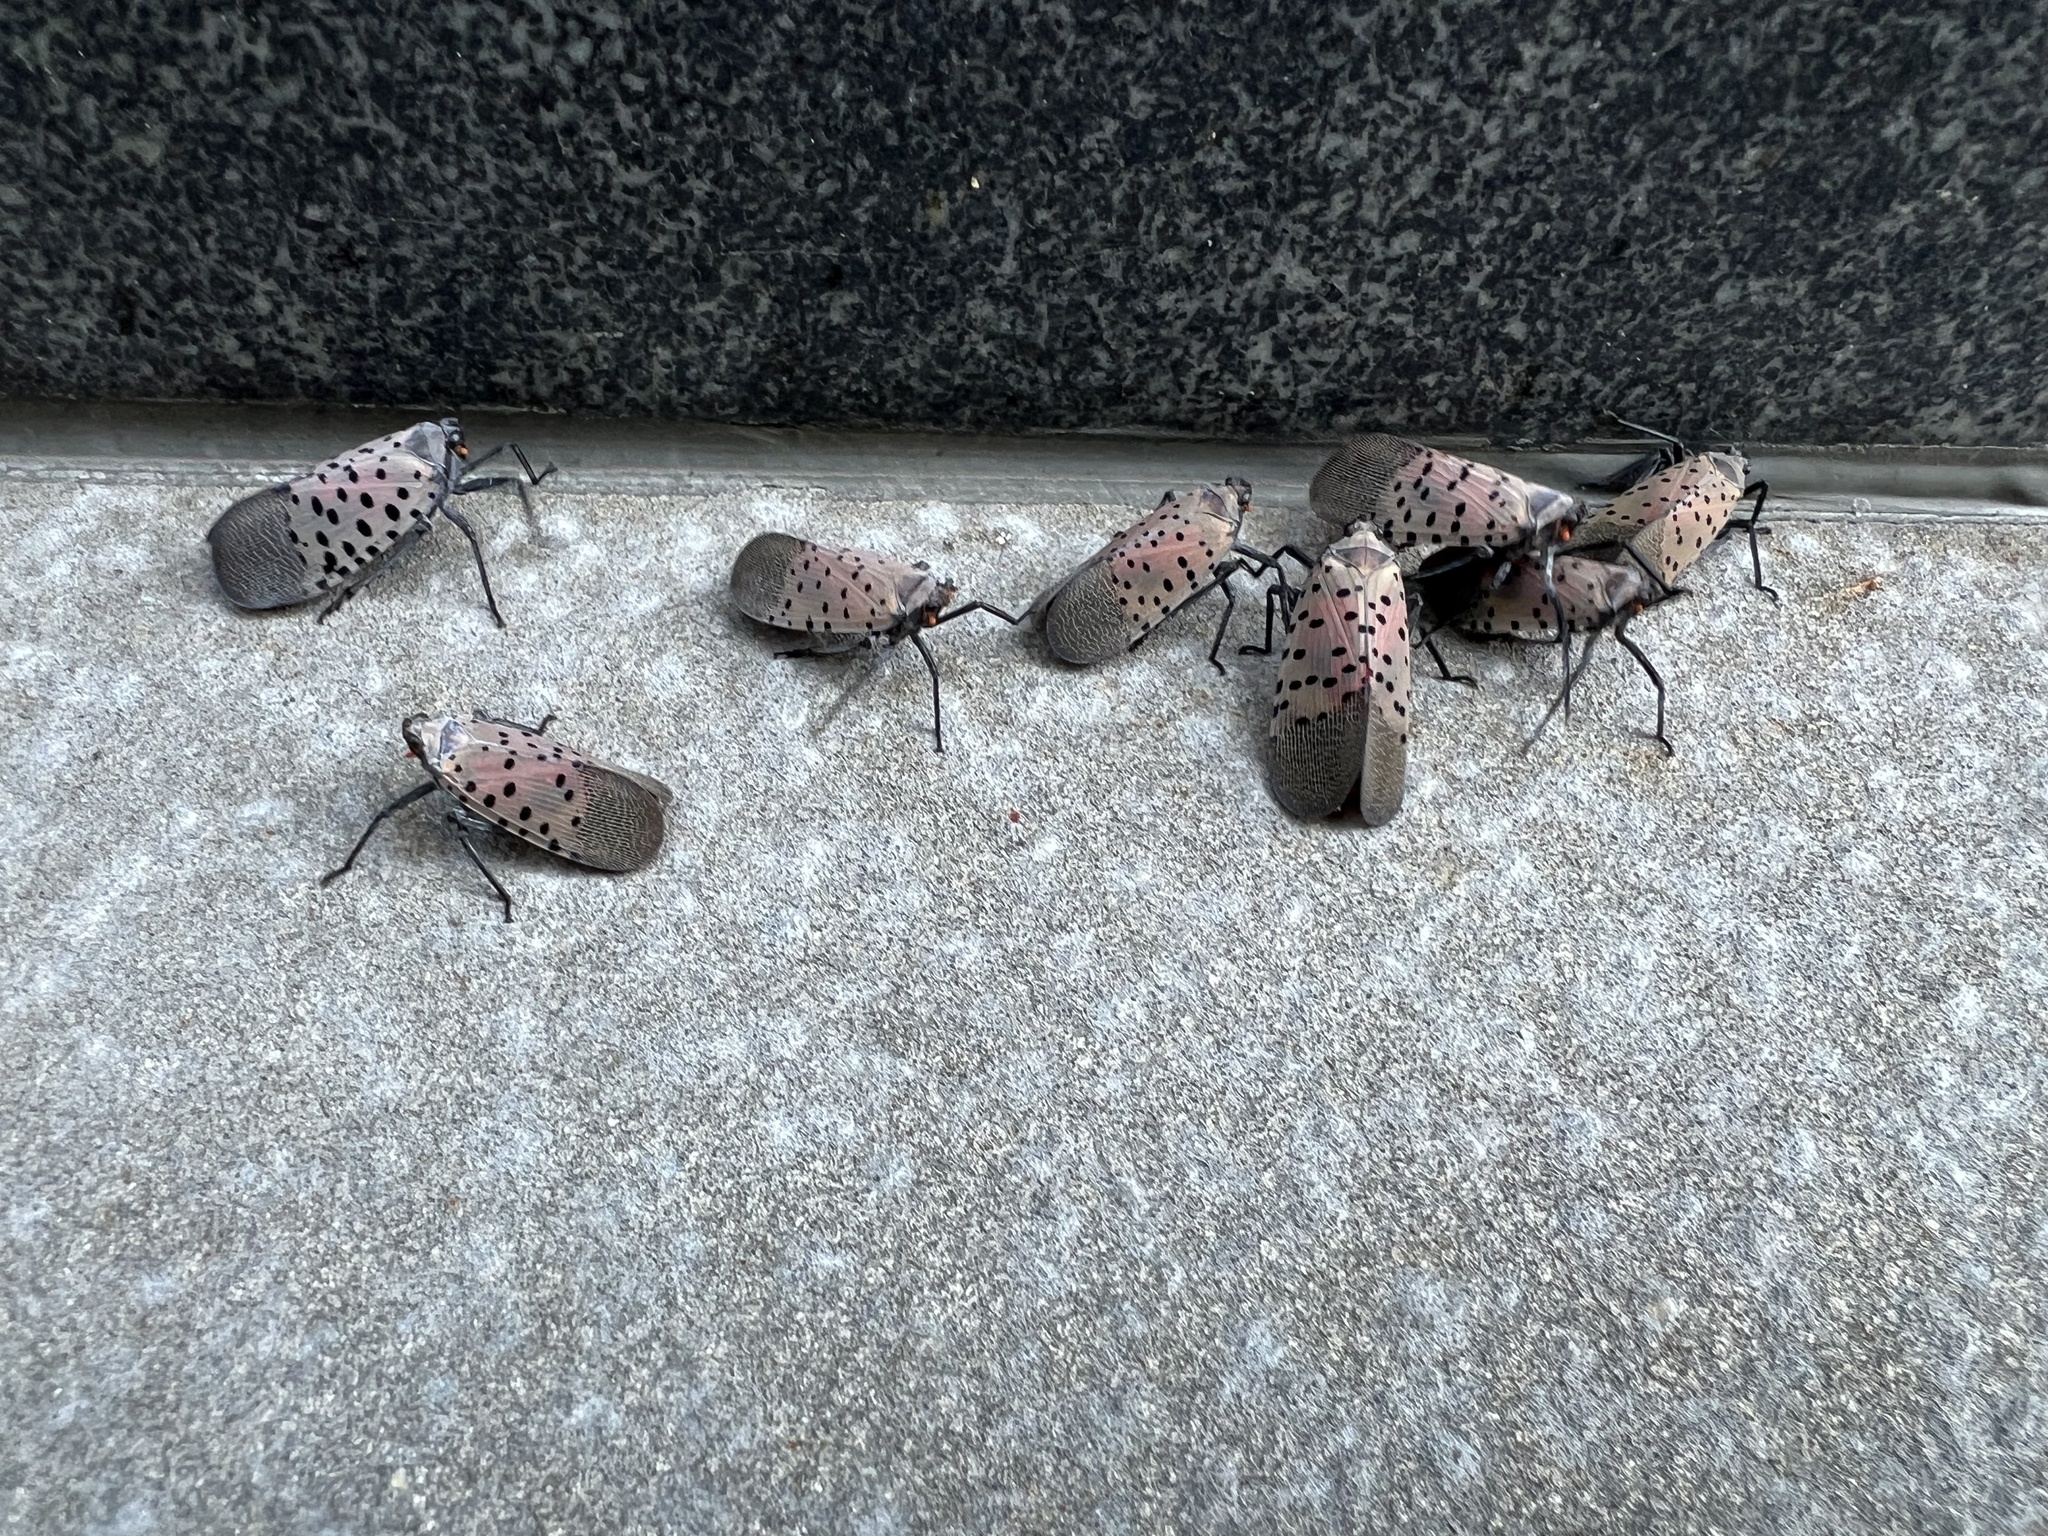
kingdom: Animalia
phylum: Arthropoda
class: Insecta
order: Hemiptera
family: Fulgoridae
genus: Lycorma
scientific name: Lycorma delicatula
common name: Spotted lanternfly
